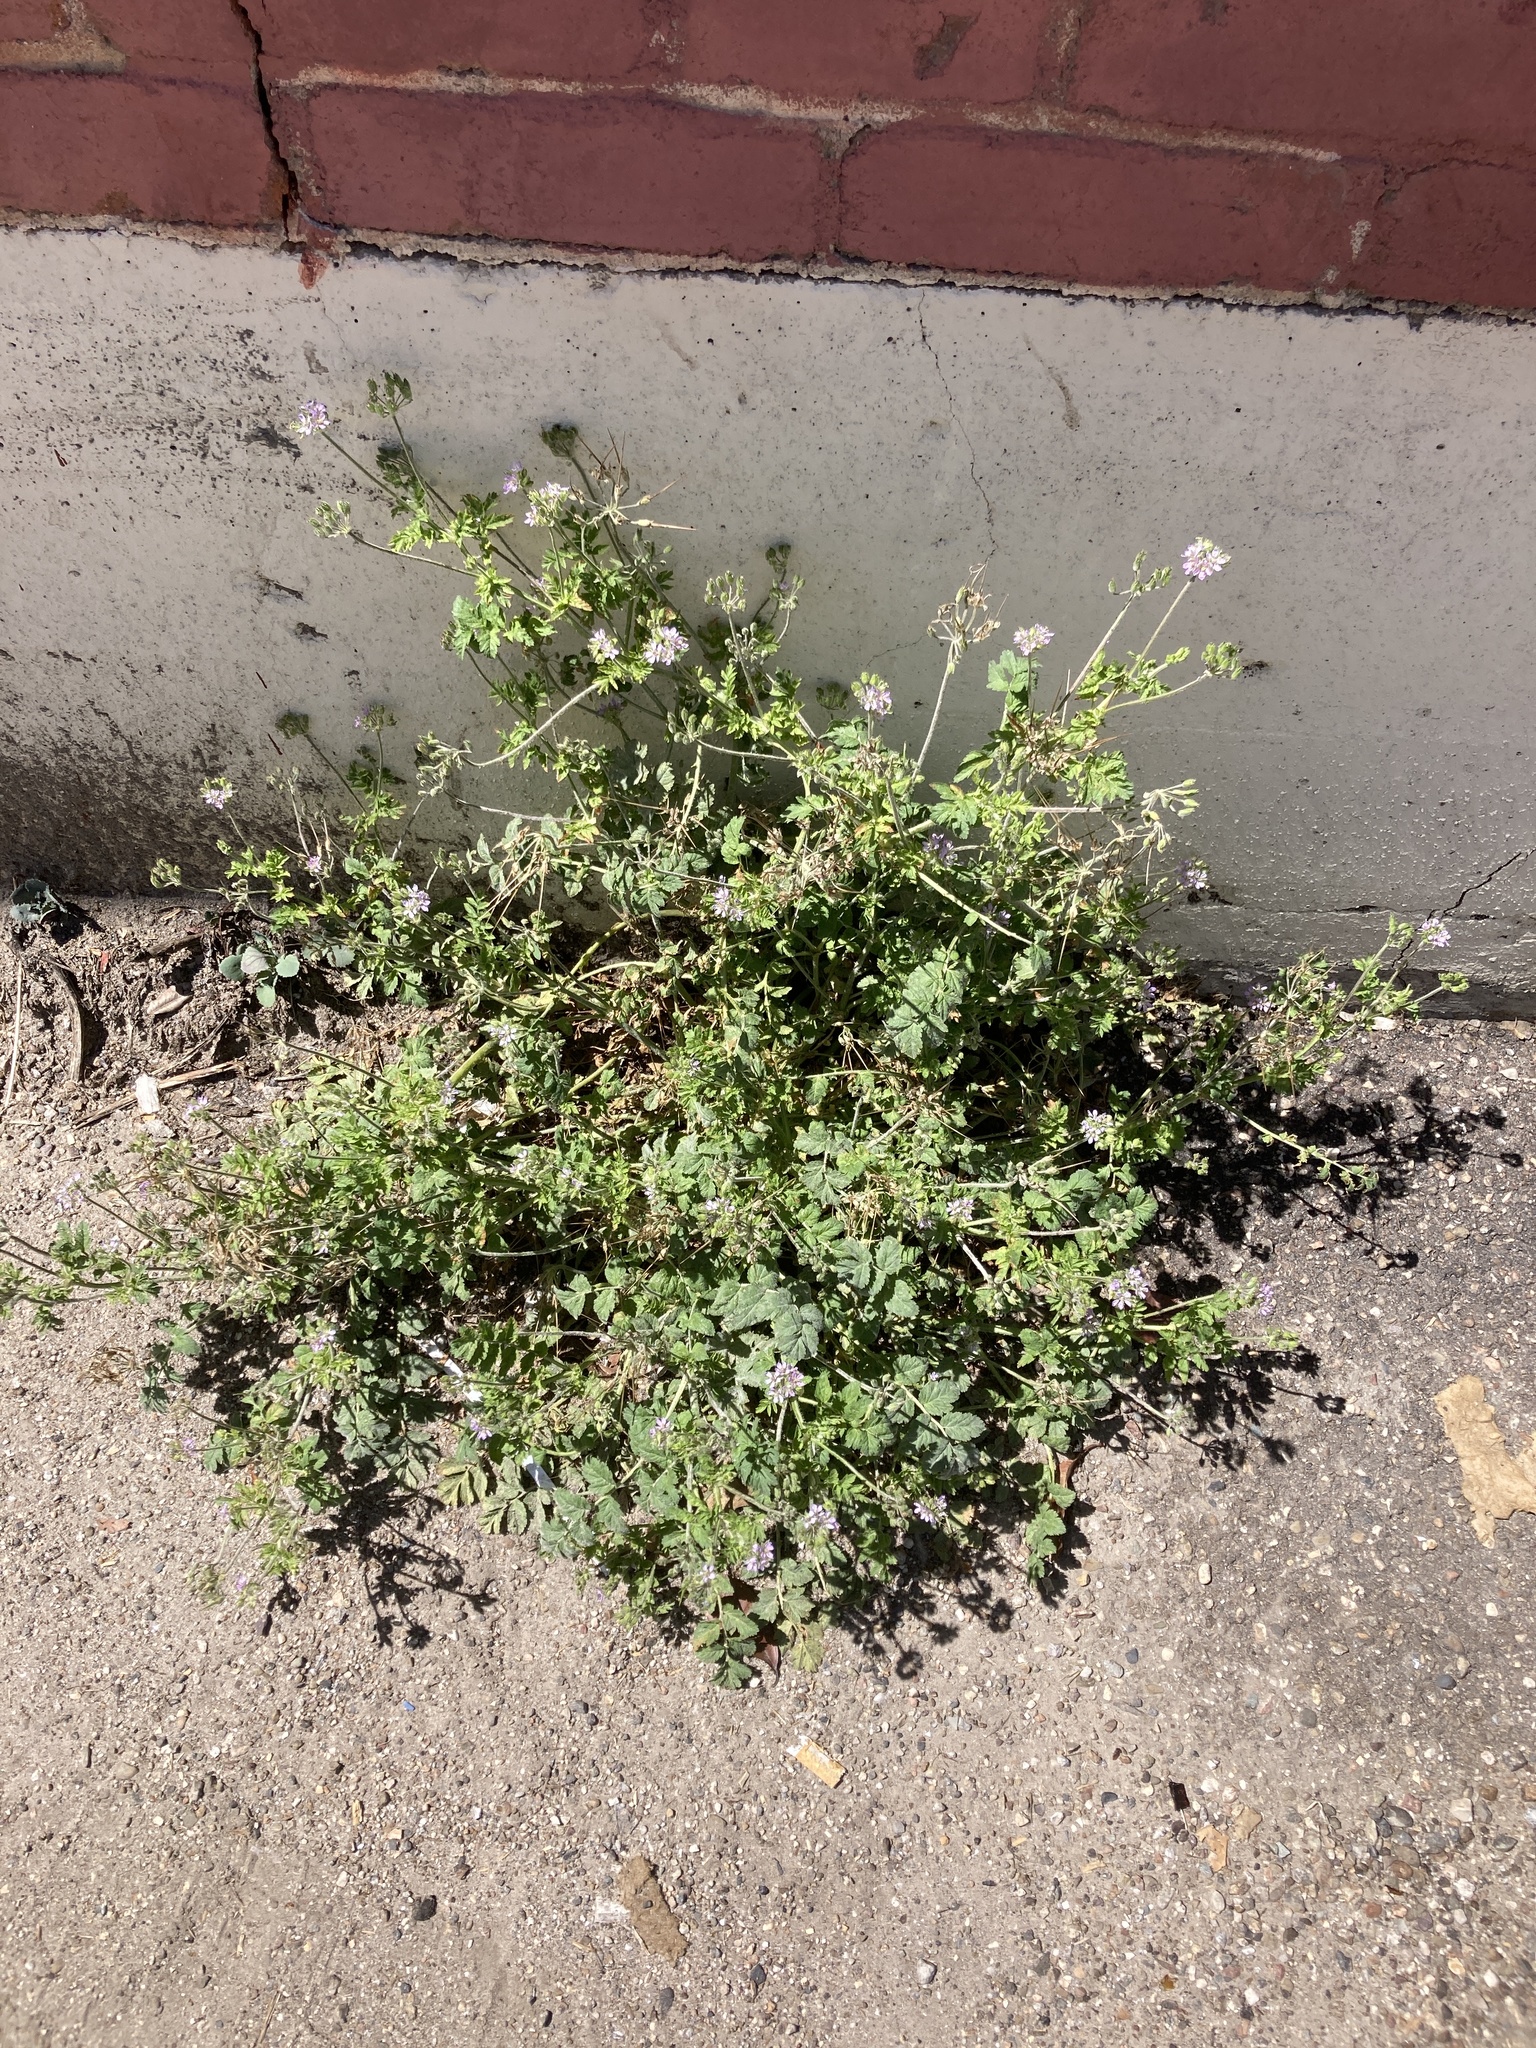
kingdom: Plantae
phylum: Tracheophyta
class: Magnoliopsida
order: Geraniales
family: Geraniaceae
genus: Erodium
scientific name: Erodium moschatum
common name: Musk stork's-bill
